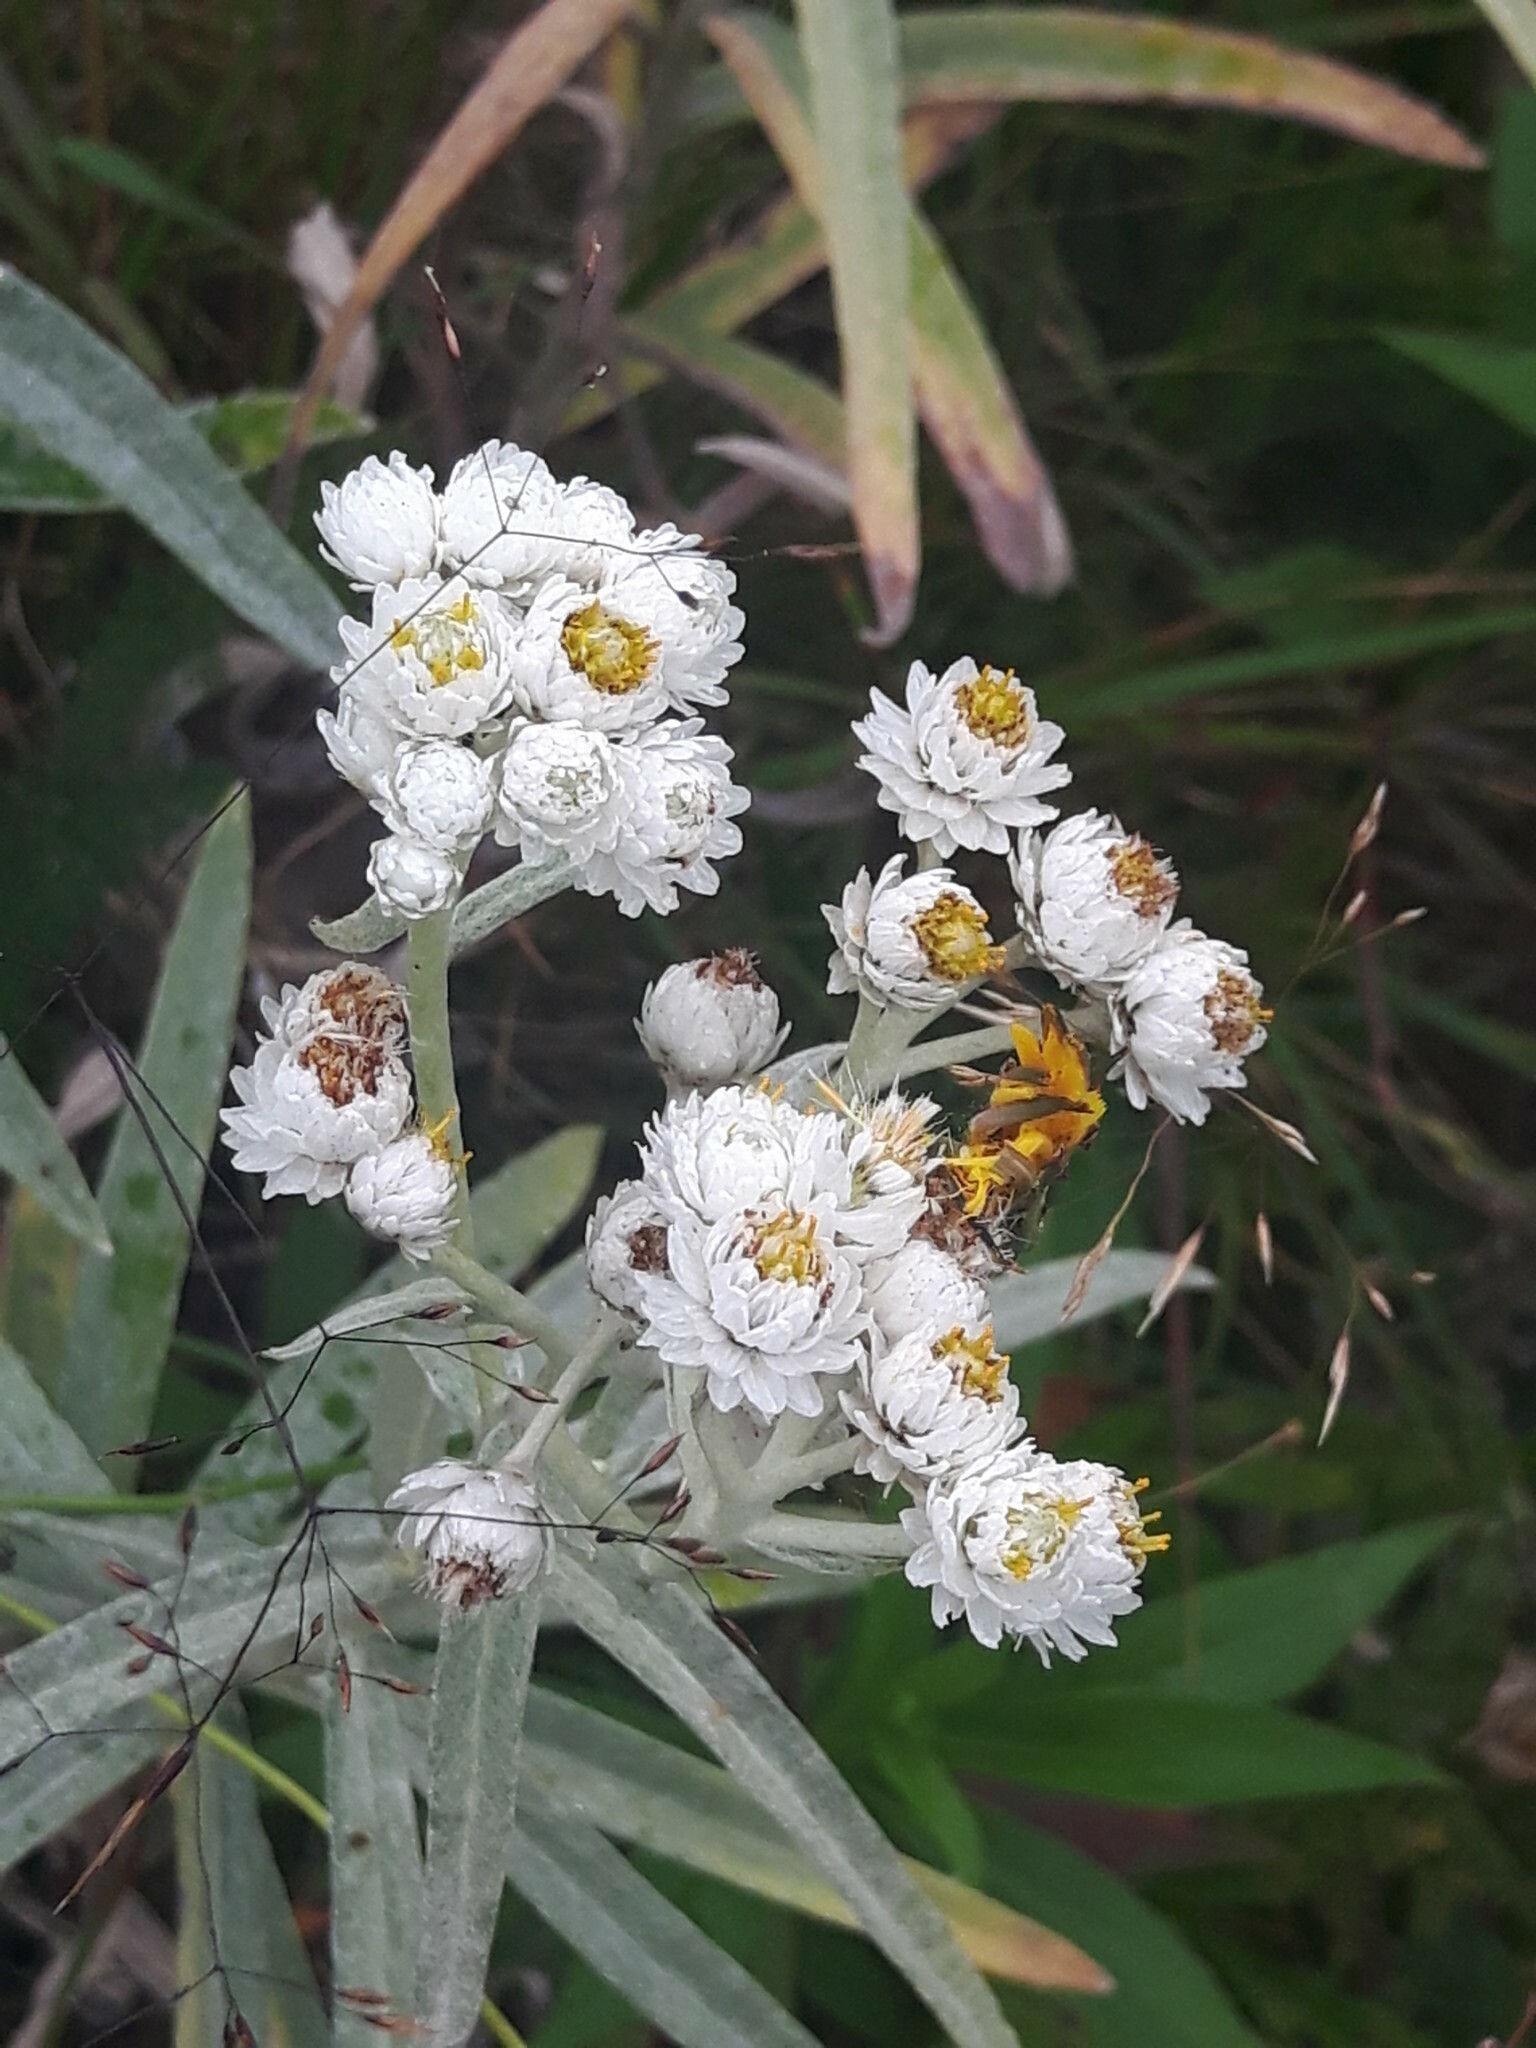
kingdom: Plantae
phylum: Tracheophyta
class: Magnoliopsida
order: Asterales
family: Asteraceae
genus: Anaphalis
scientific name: Anaphalis margaritacea
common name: Pearly everlasting
